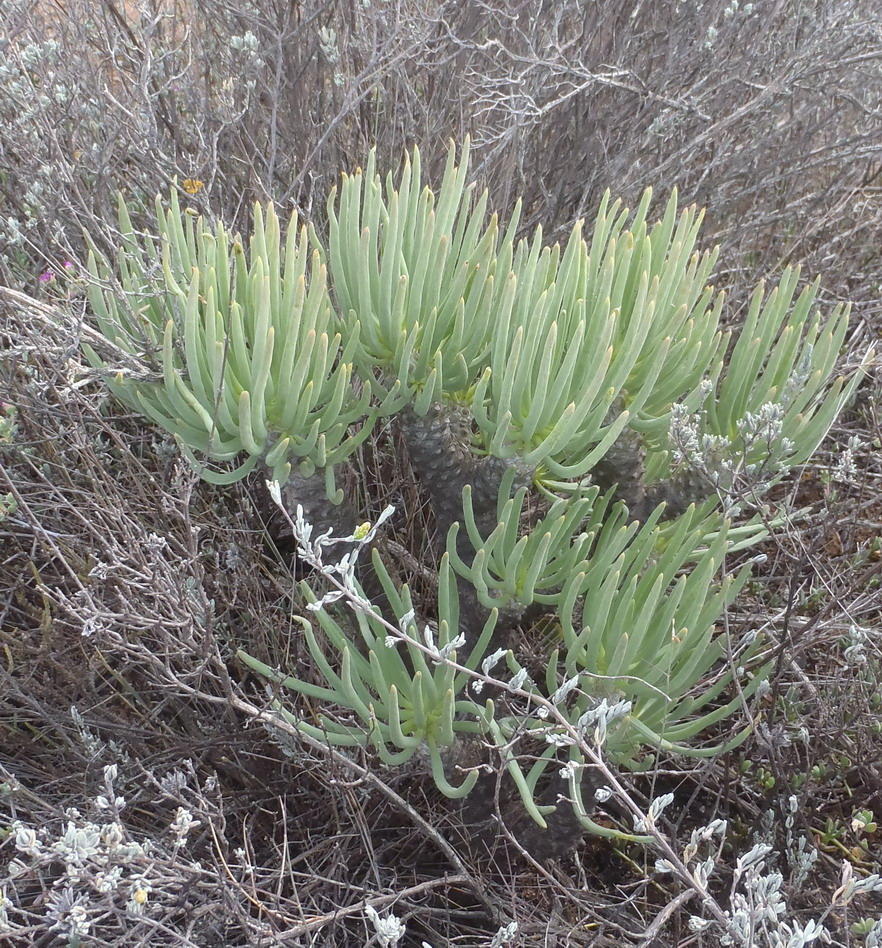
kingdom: Plantae
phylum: Tracheophyta
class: Magnoliopsida
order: Saxifragales
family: Crassulaceae
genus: Tylecodon
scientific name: Tylecodon cacaliodes
